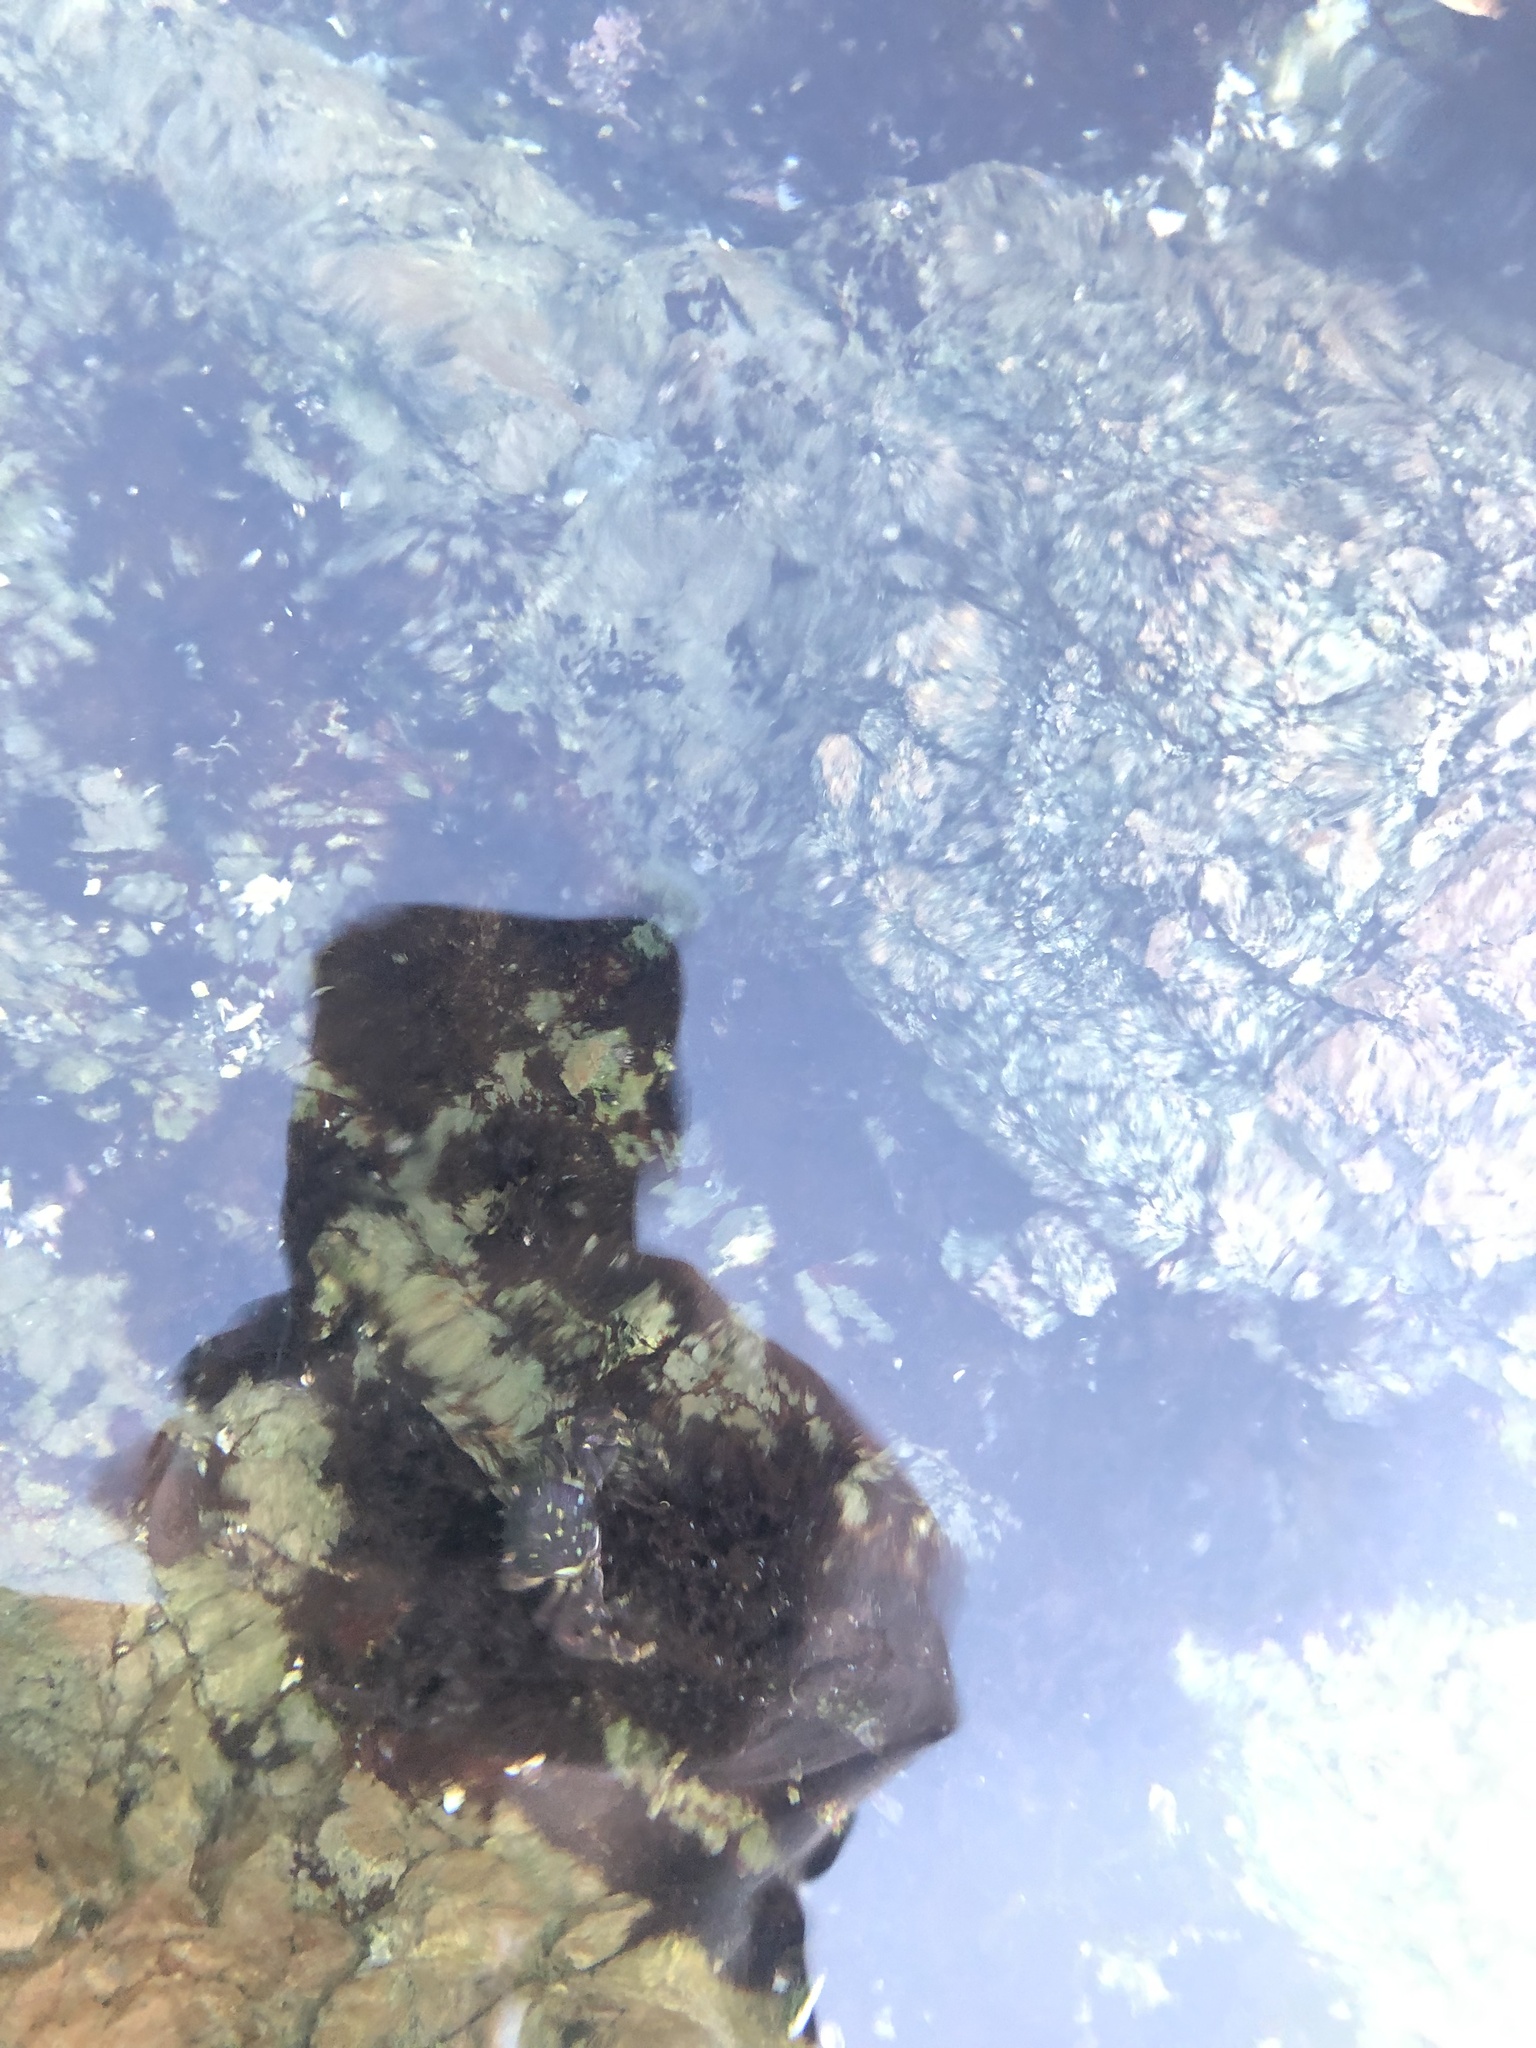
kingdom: Animalia
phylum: Arthropoda
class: Malacostraca
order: Decapoda
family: Varunidae
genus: Hemigrapsus
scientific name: Hemigrapsus nudus
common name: Purple shore crab
